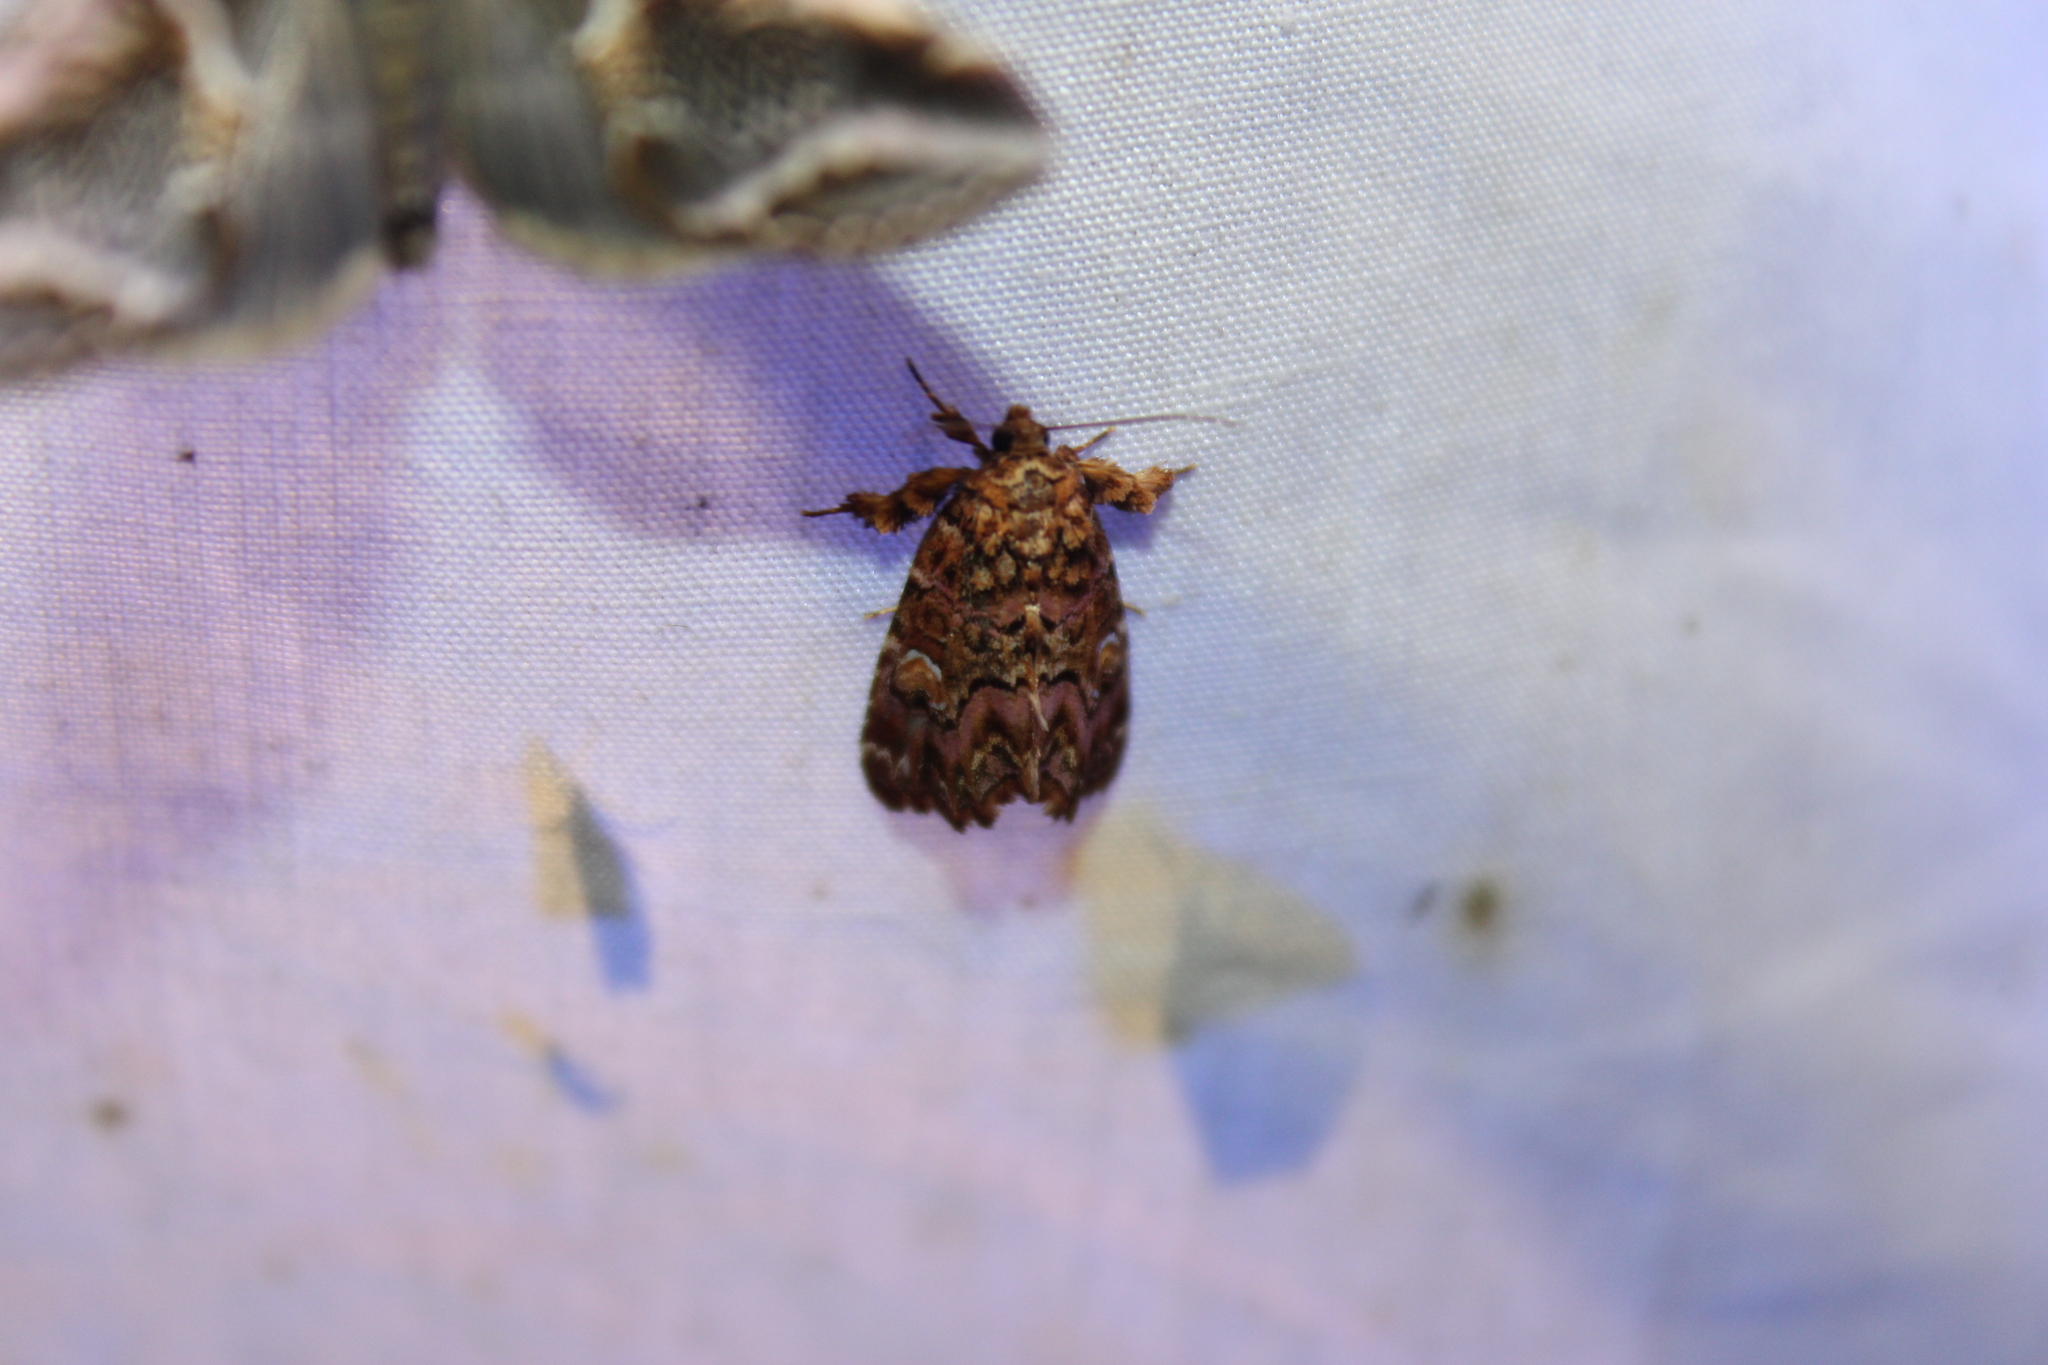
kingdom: Animalia
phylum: Arthropoda
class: Insecta
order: Lepidoptera
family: Noctuidae
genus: Callopistria
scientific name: Callopistria mollissima
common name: Pink-shaded fern moth
